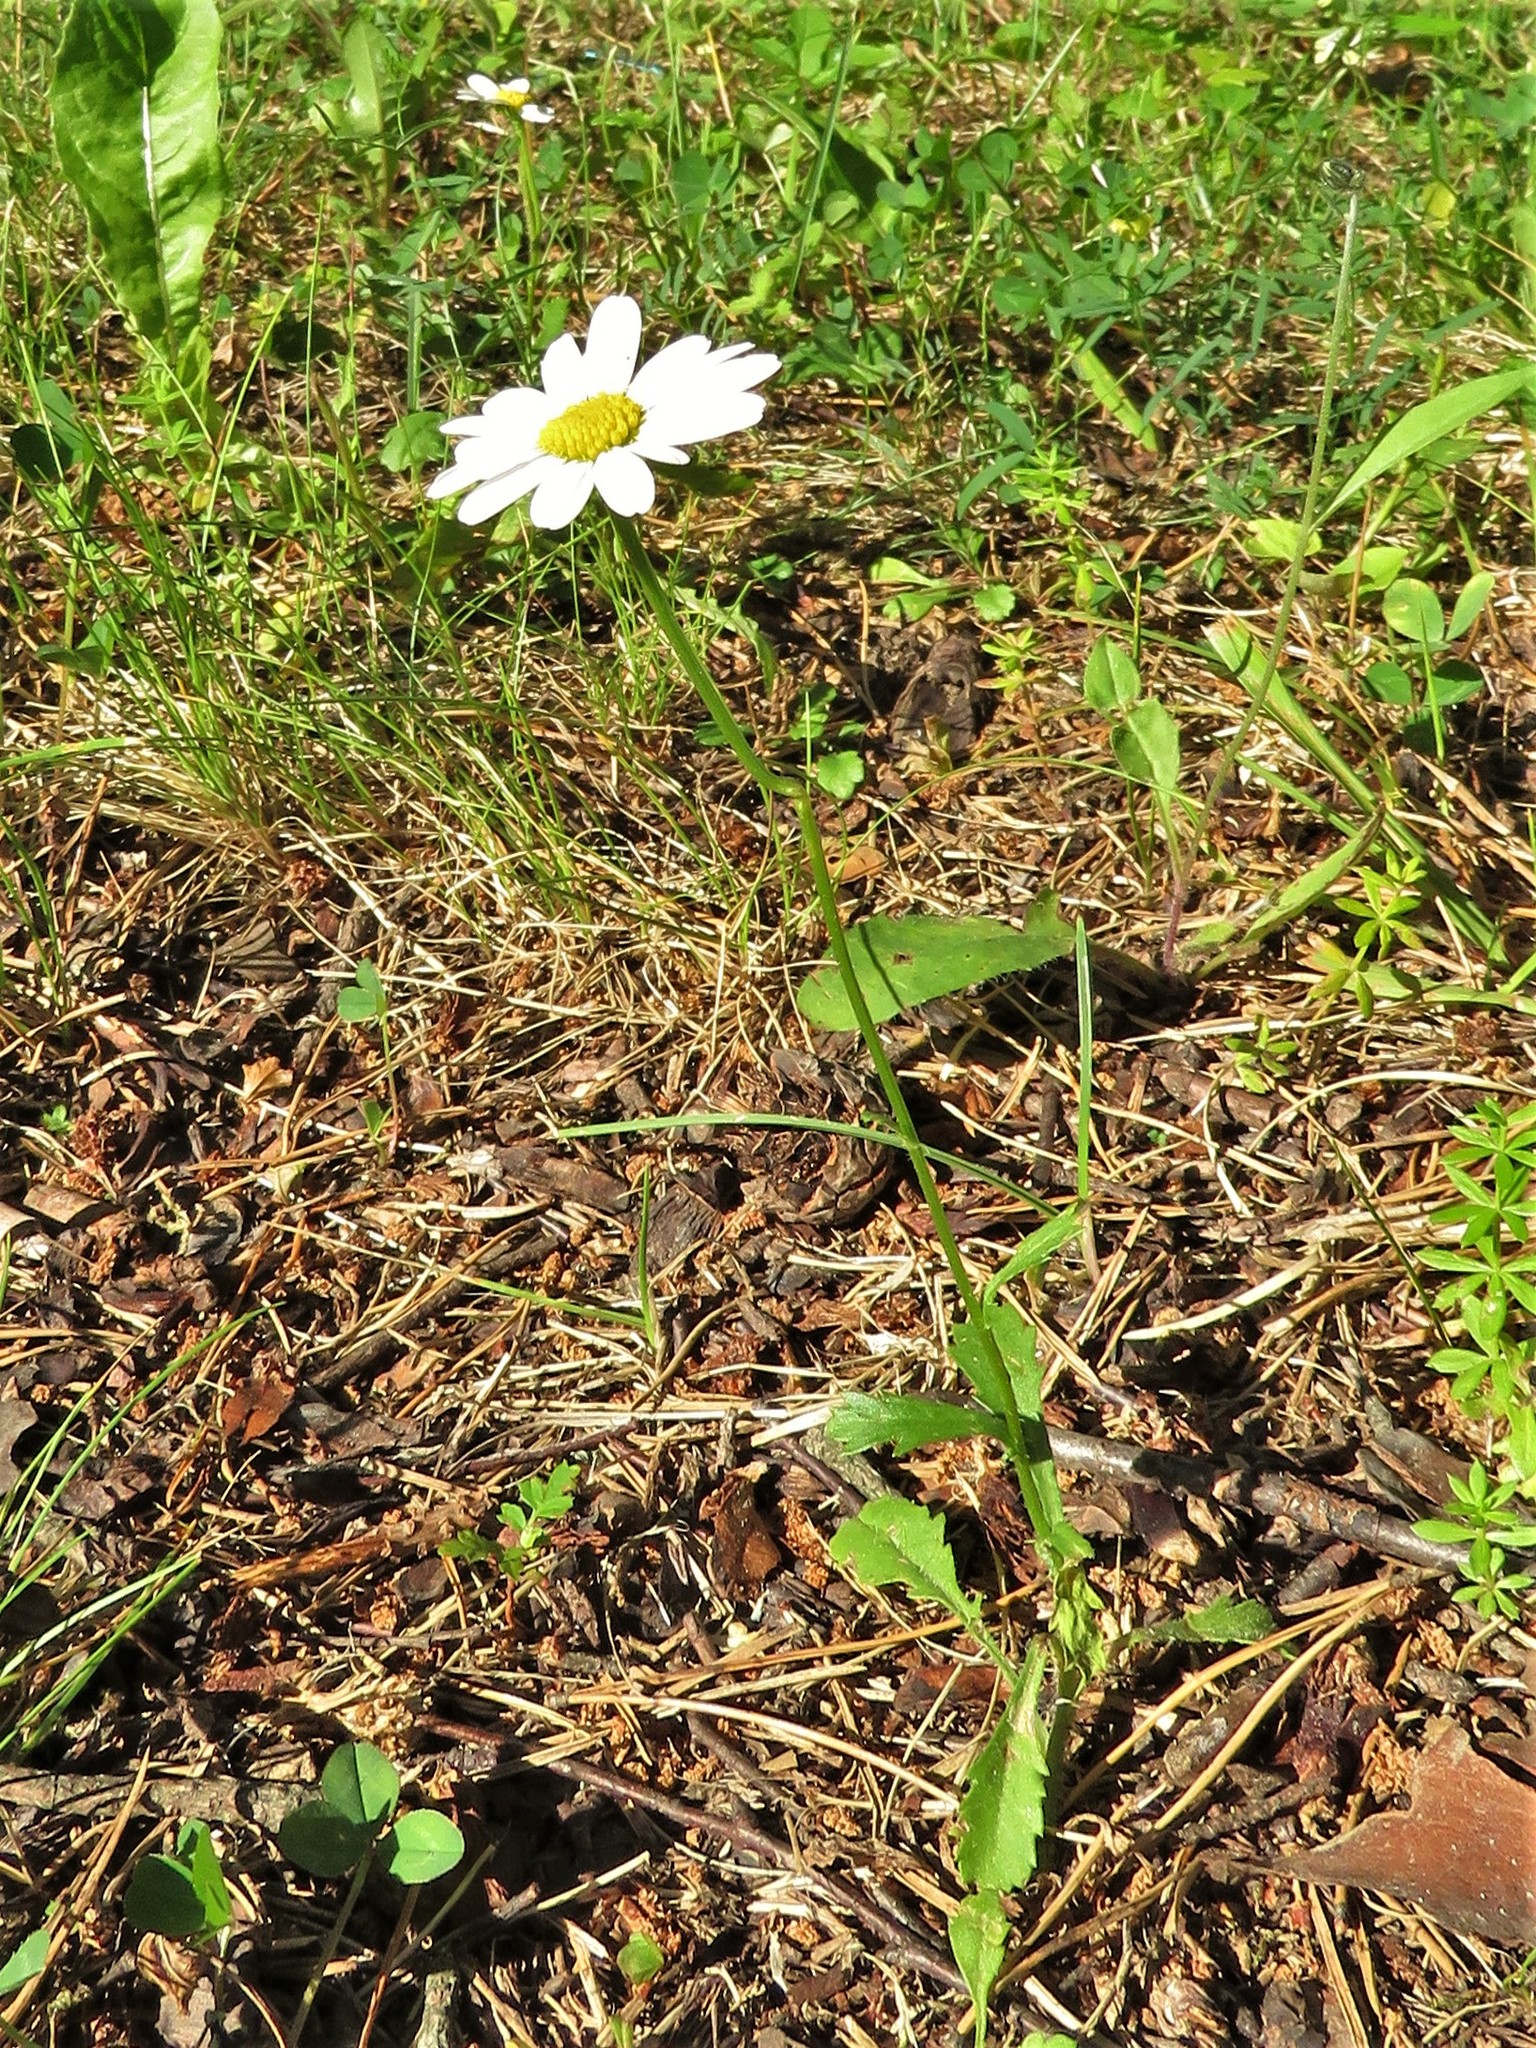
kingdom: Plantae
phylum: Tracheophyta
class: Magnoliopsida
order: Asterales
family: Asteraceae
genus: Leucanthemum
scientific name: Leucanthemum vulgare
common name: Oxeye daisy
